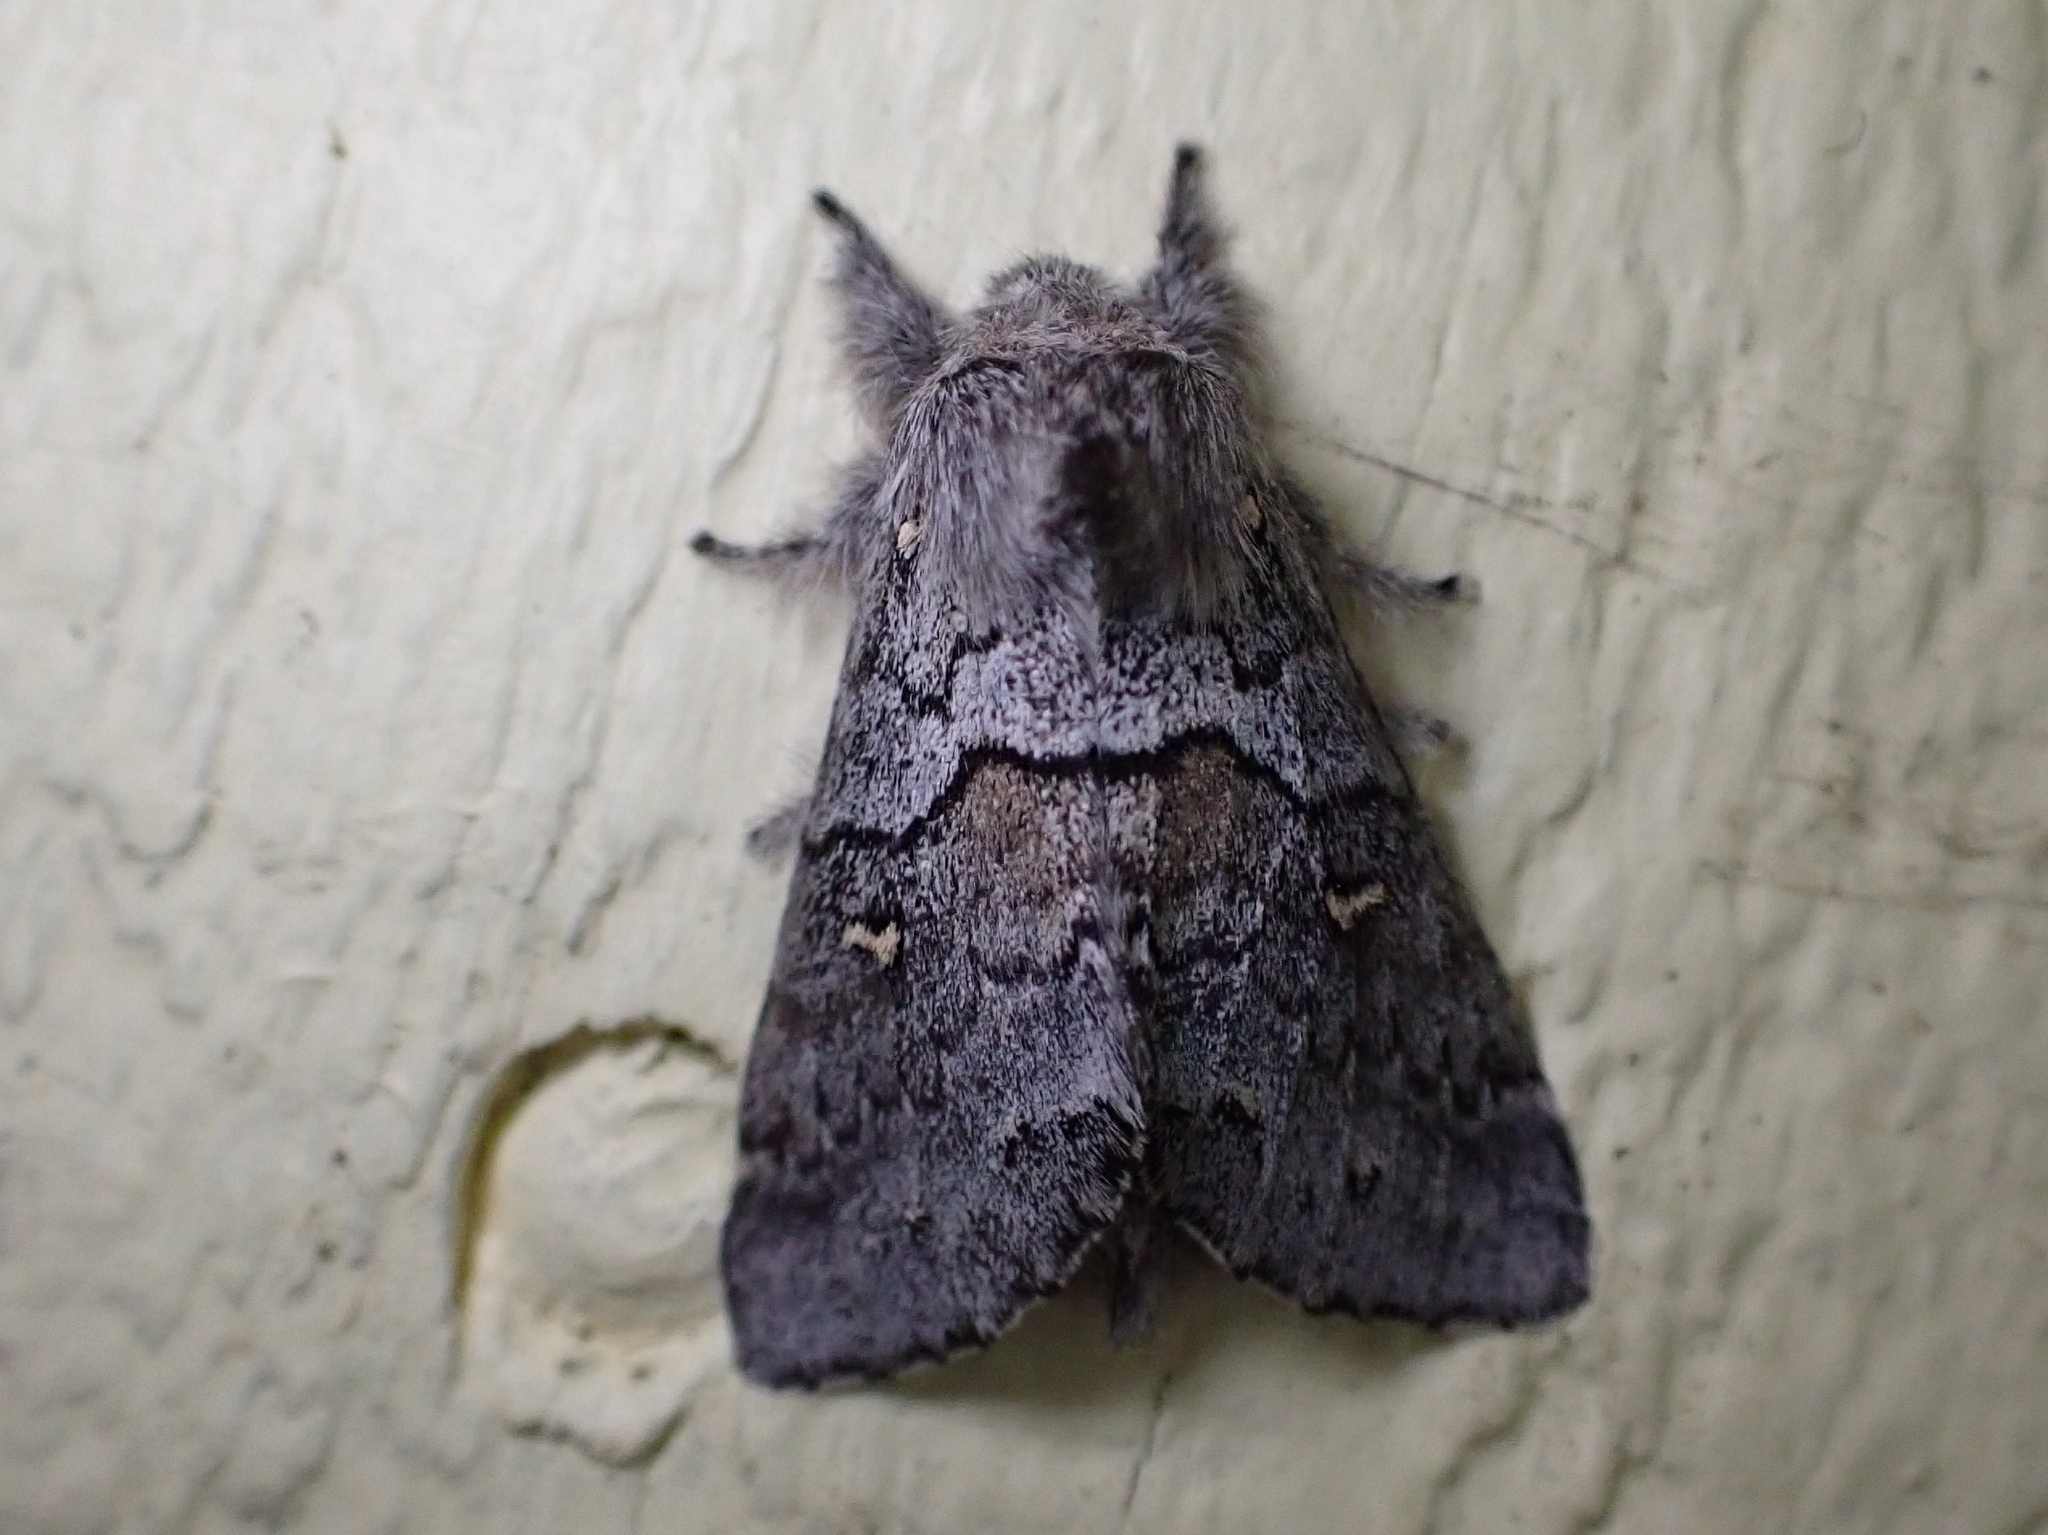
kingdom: Animalia
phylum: Arthropoda
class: Insecta
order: Lepidoptera
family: Notodontidae
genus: Gluphisia
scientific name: Gluphisia avimacula
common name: Four-spotted gluphisia moth
